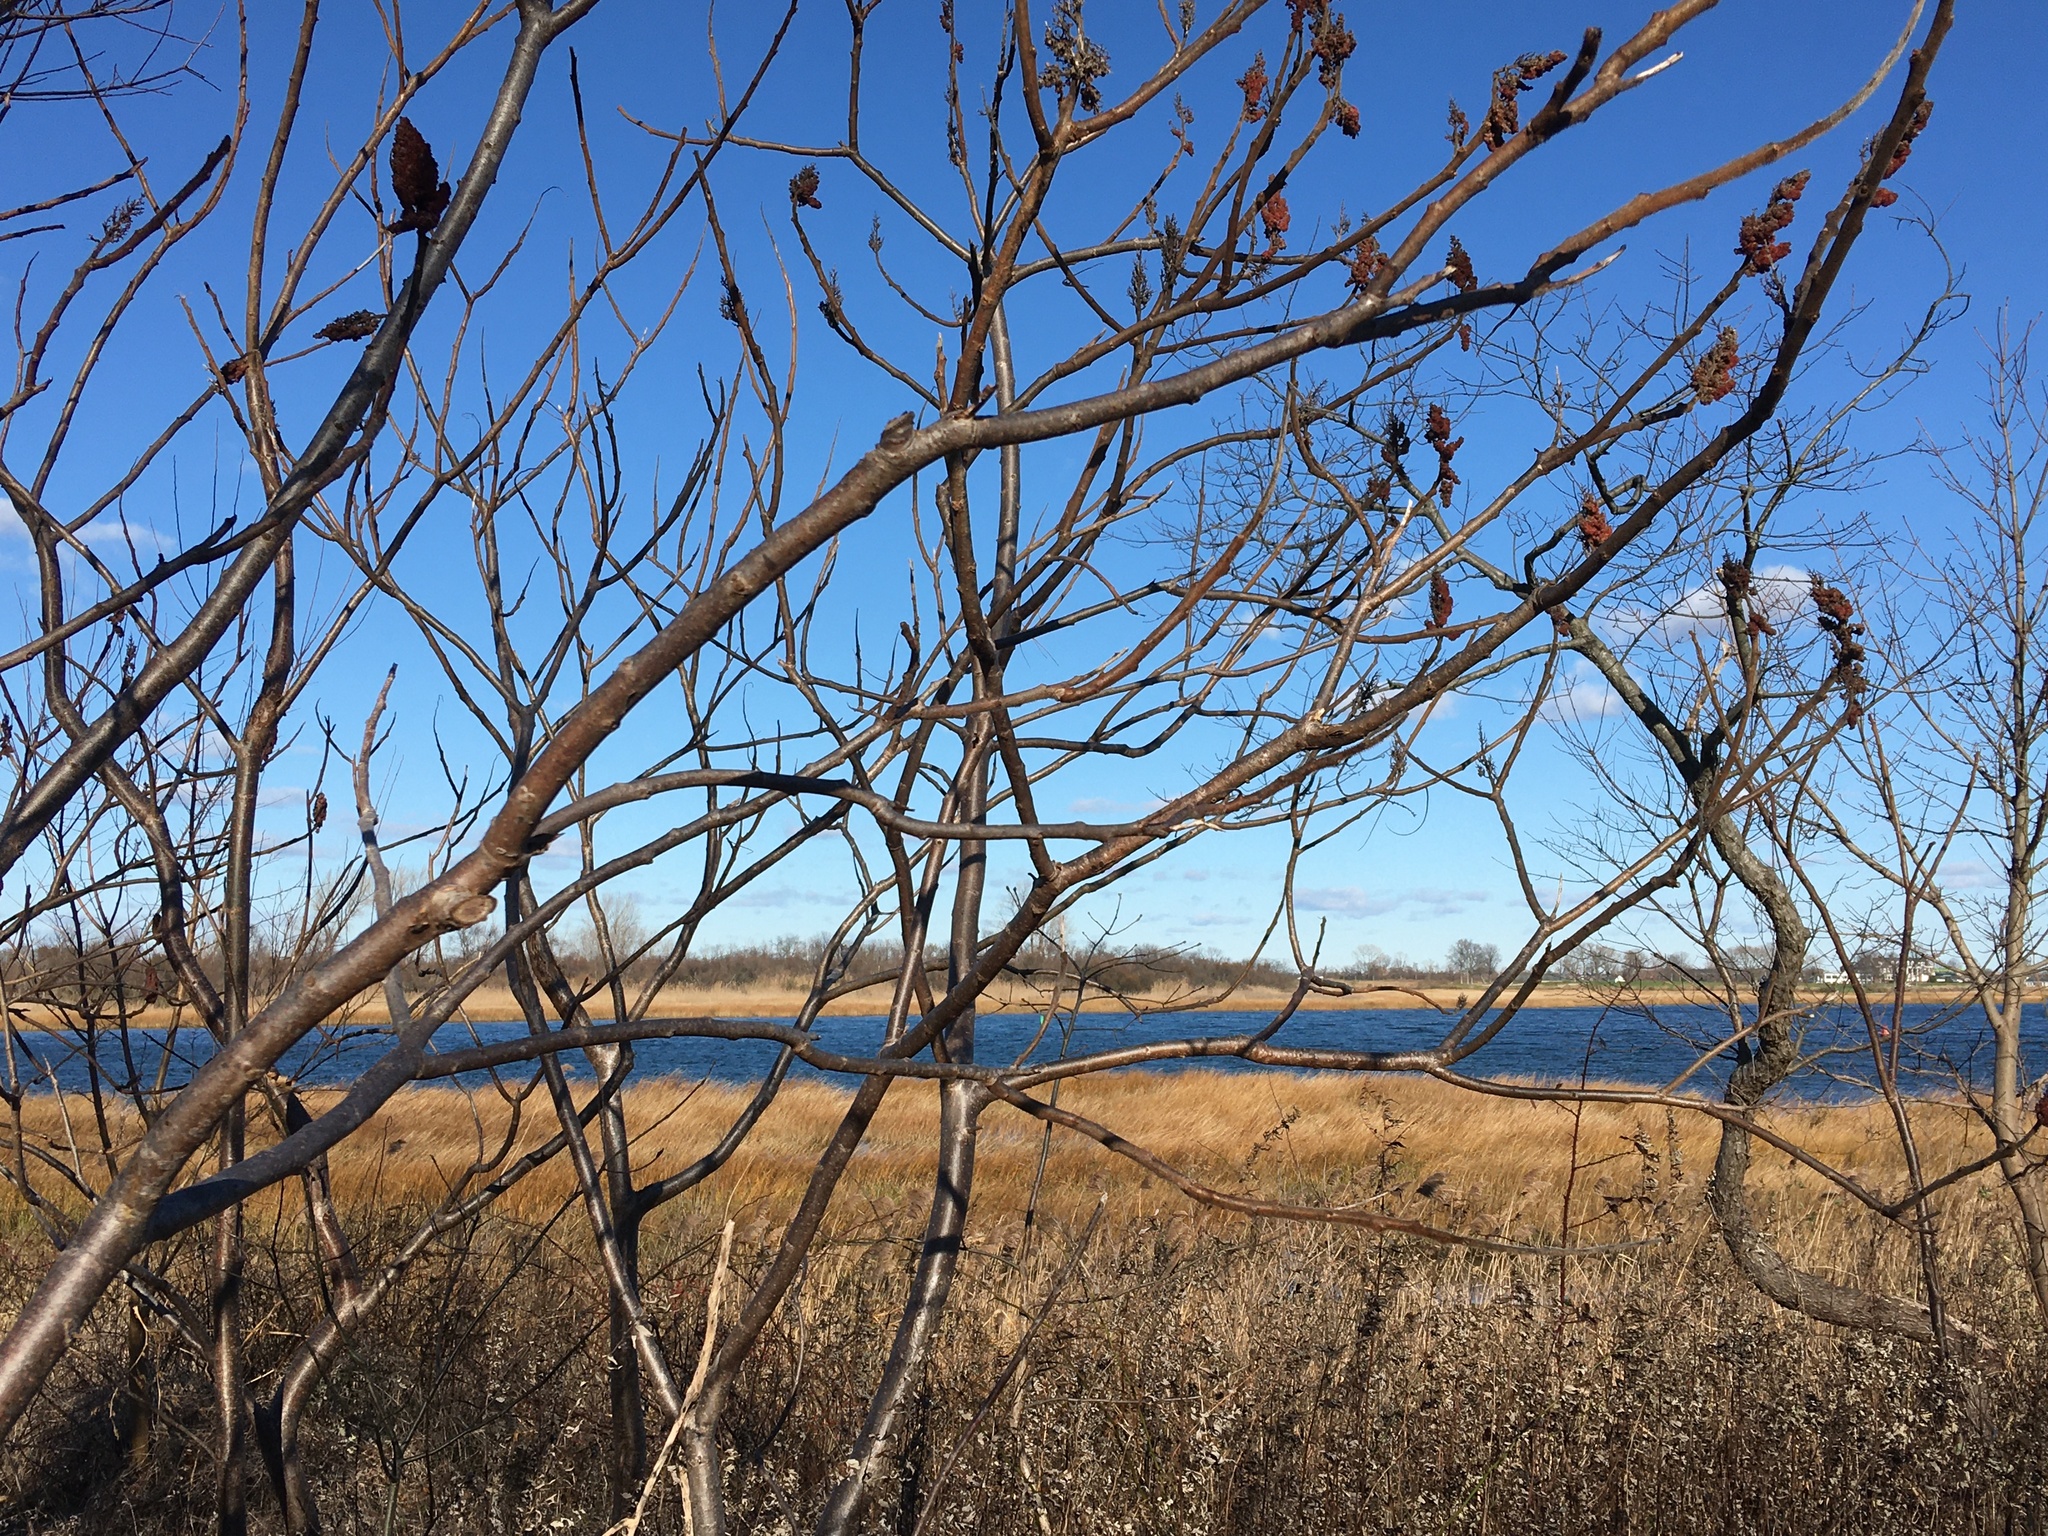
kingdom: Plantae
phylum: Tracheophyta
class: Magnoliopsida
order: Sapindales
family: Anacardiaceae
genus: Rhus
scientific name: Rhus typhina
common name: Staghorn sumac
